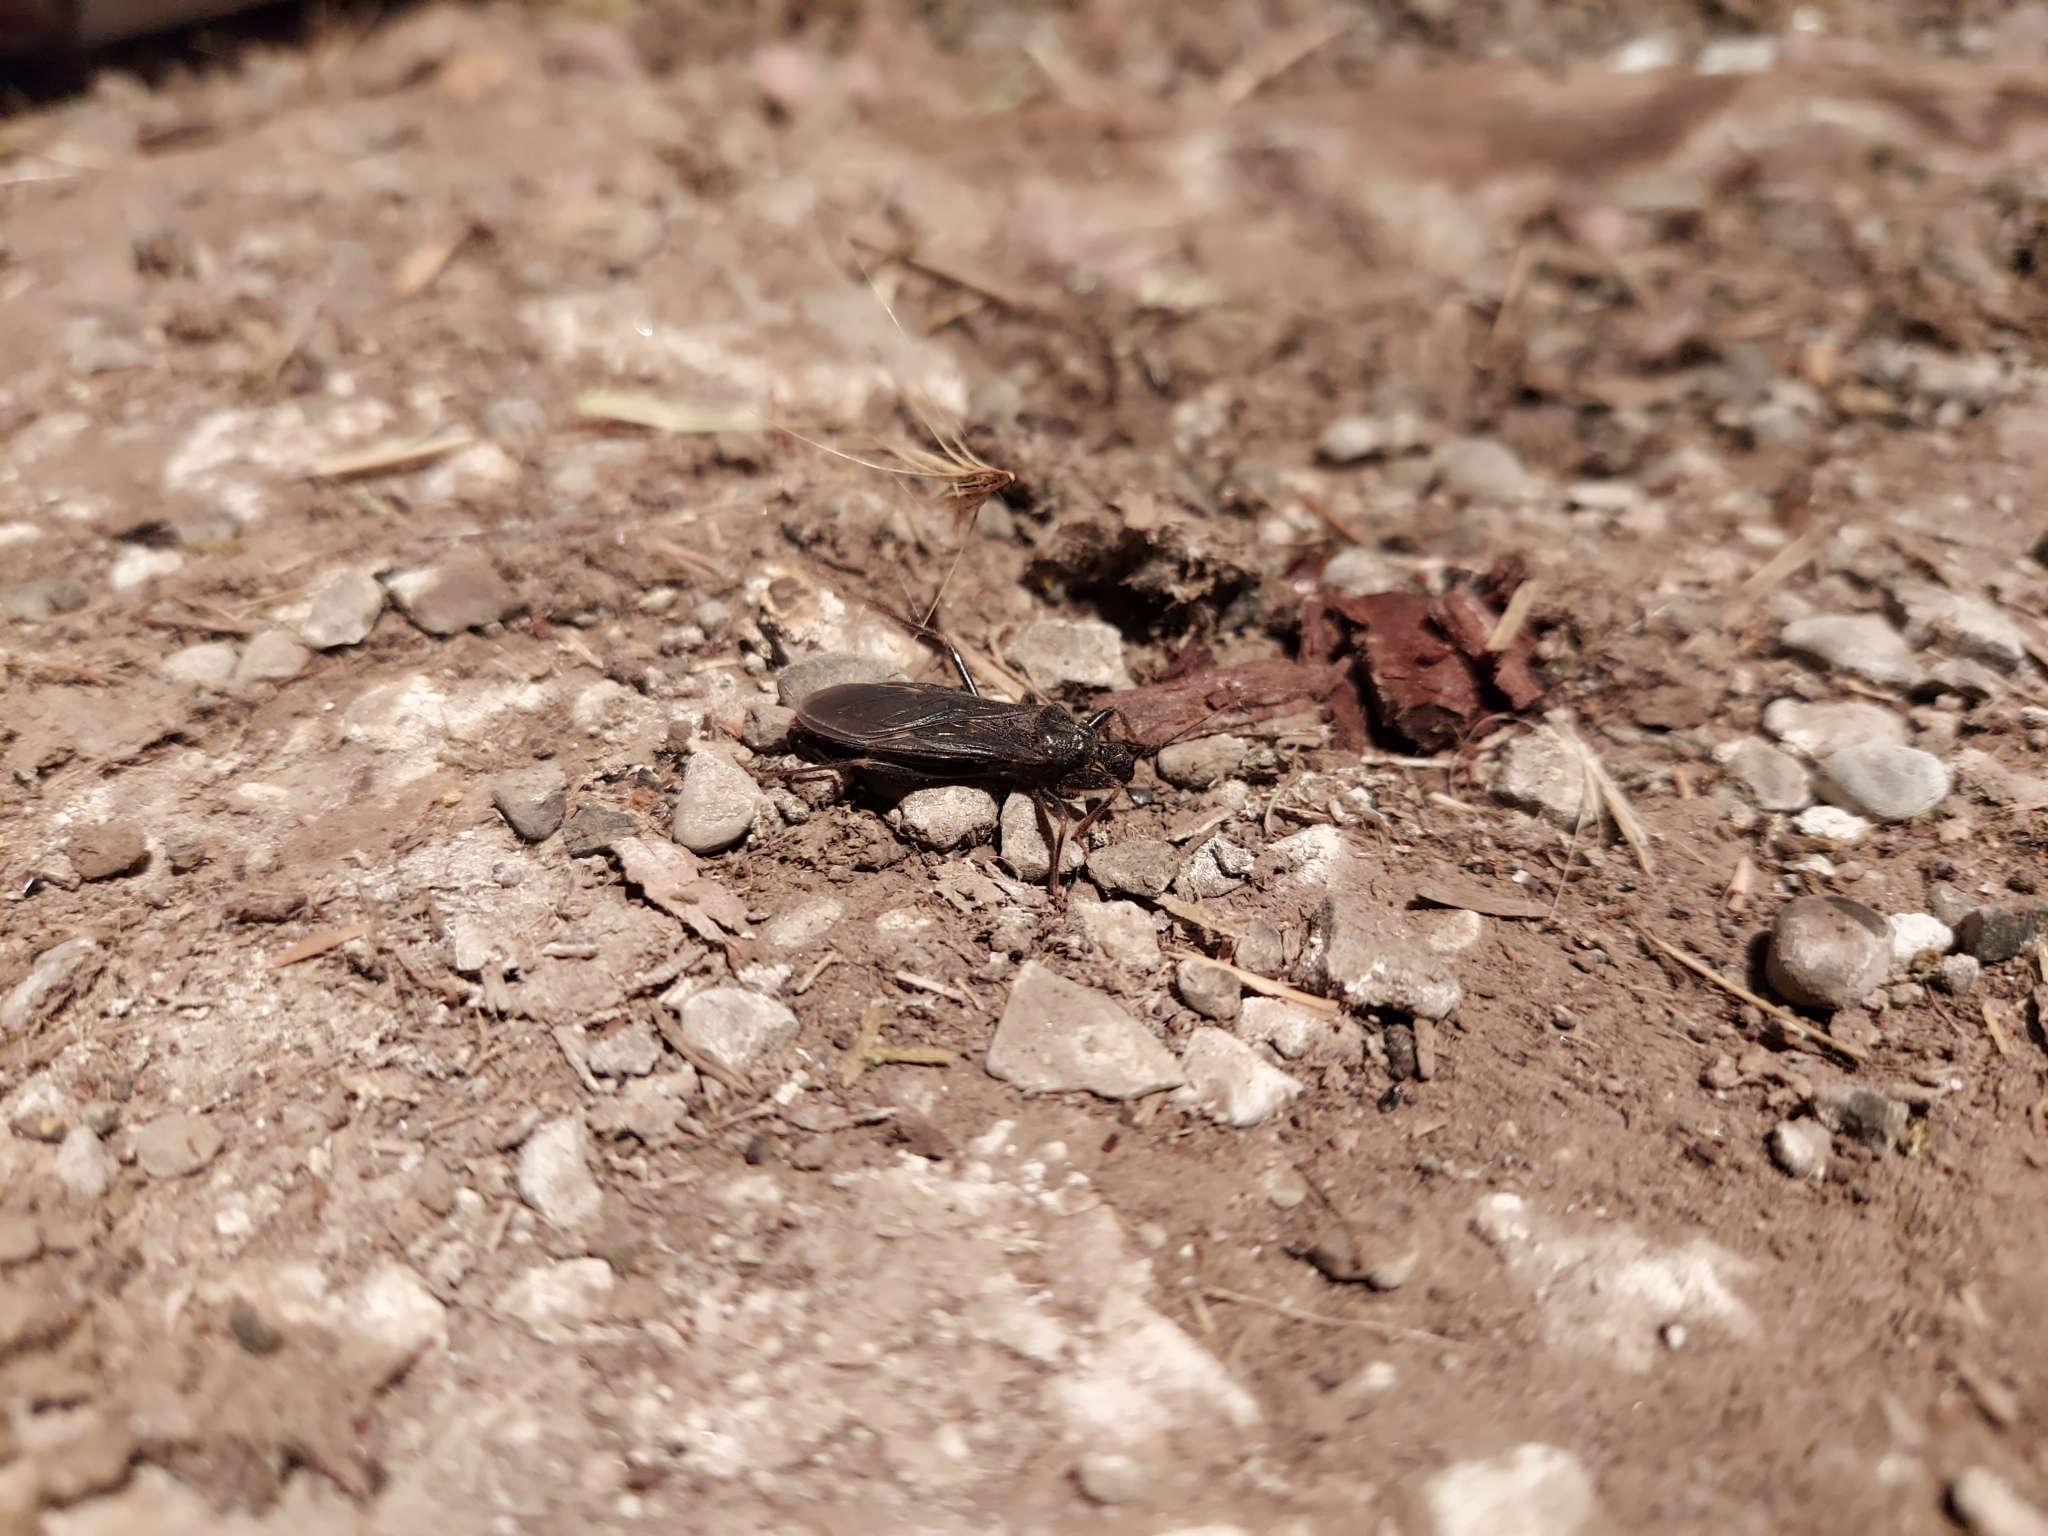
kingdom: Animalia
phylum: Arthropoda
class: Insecta
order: Hemiptera
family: Reduviidae
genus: Reduvius
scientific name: Reduvius personatus
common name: Masked hunter
